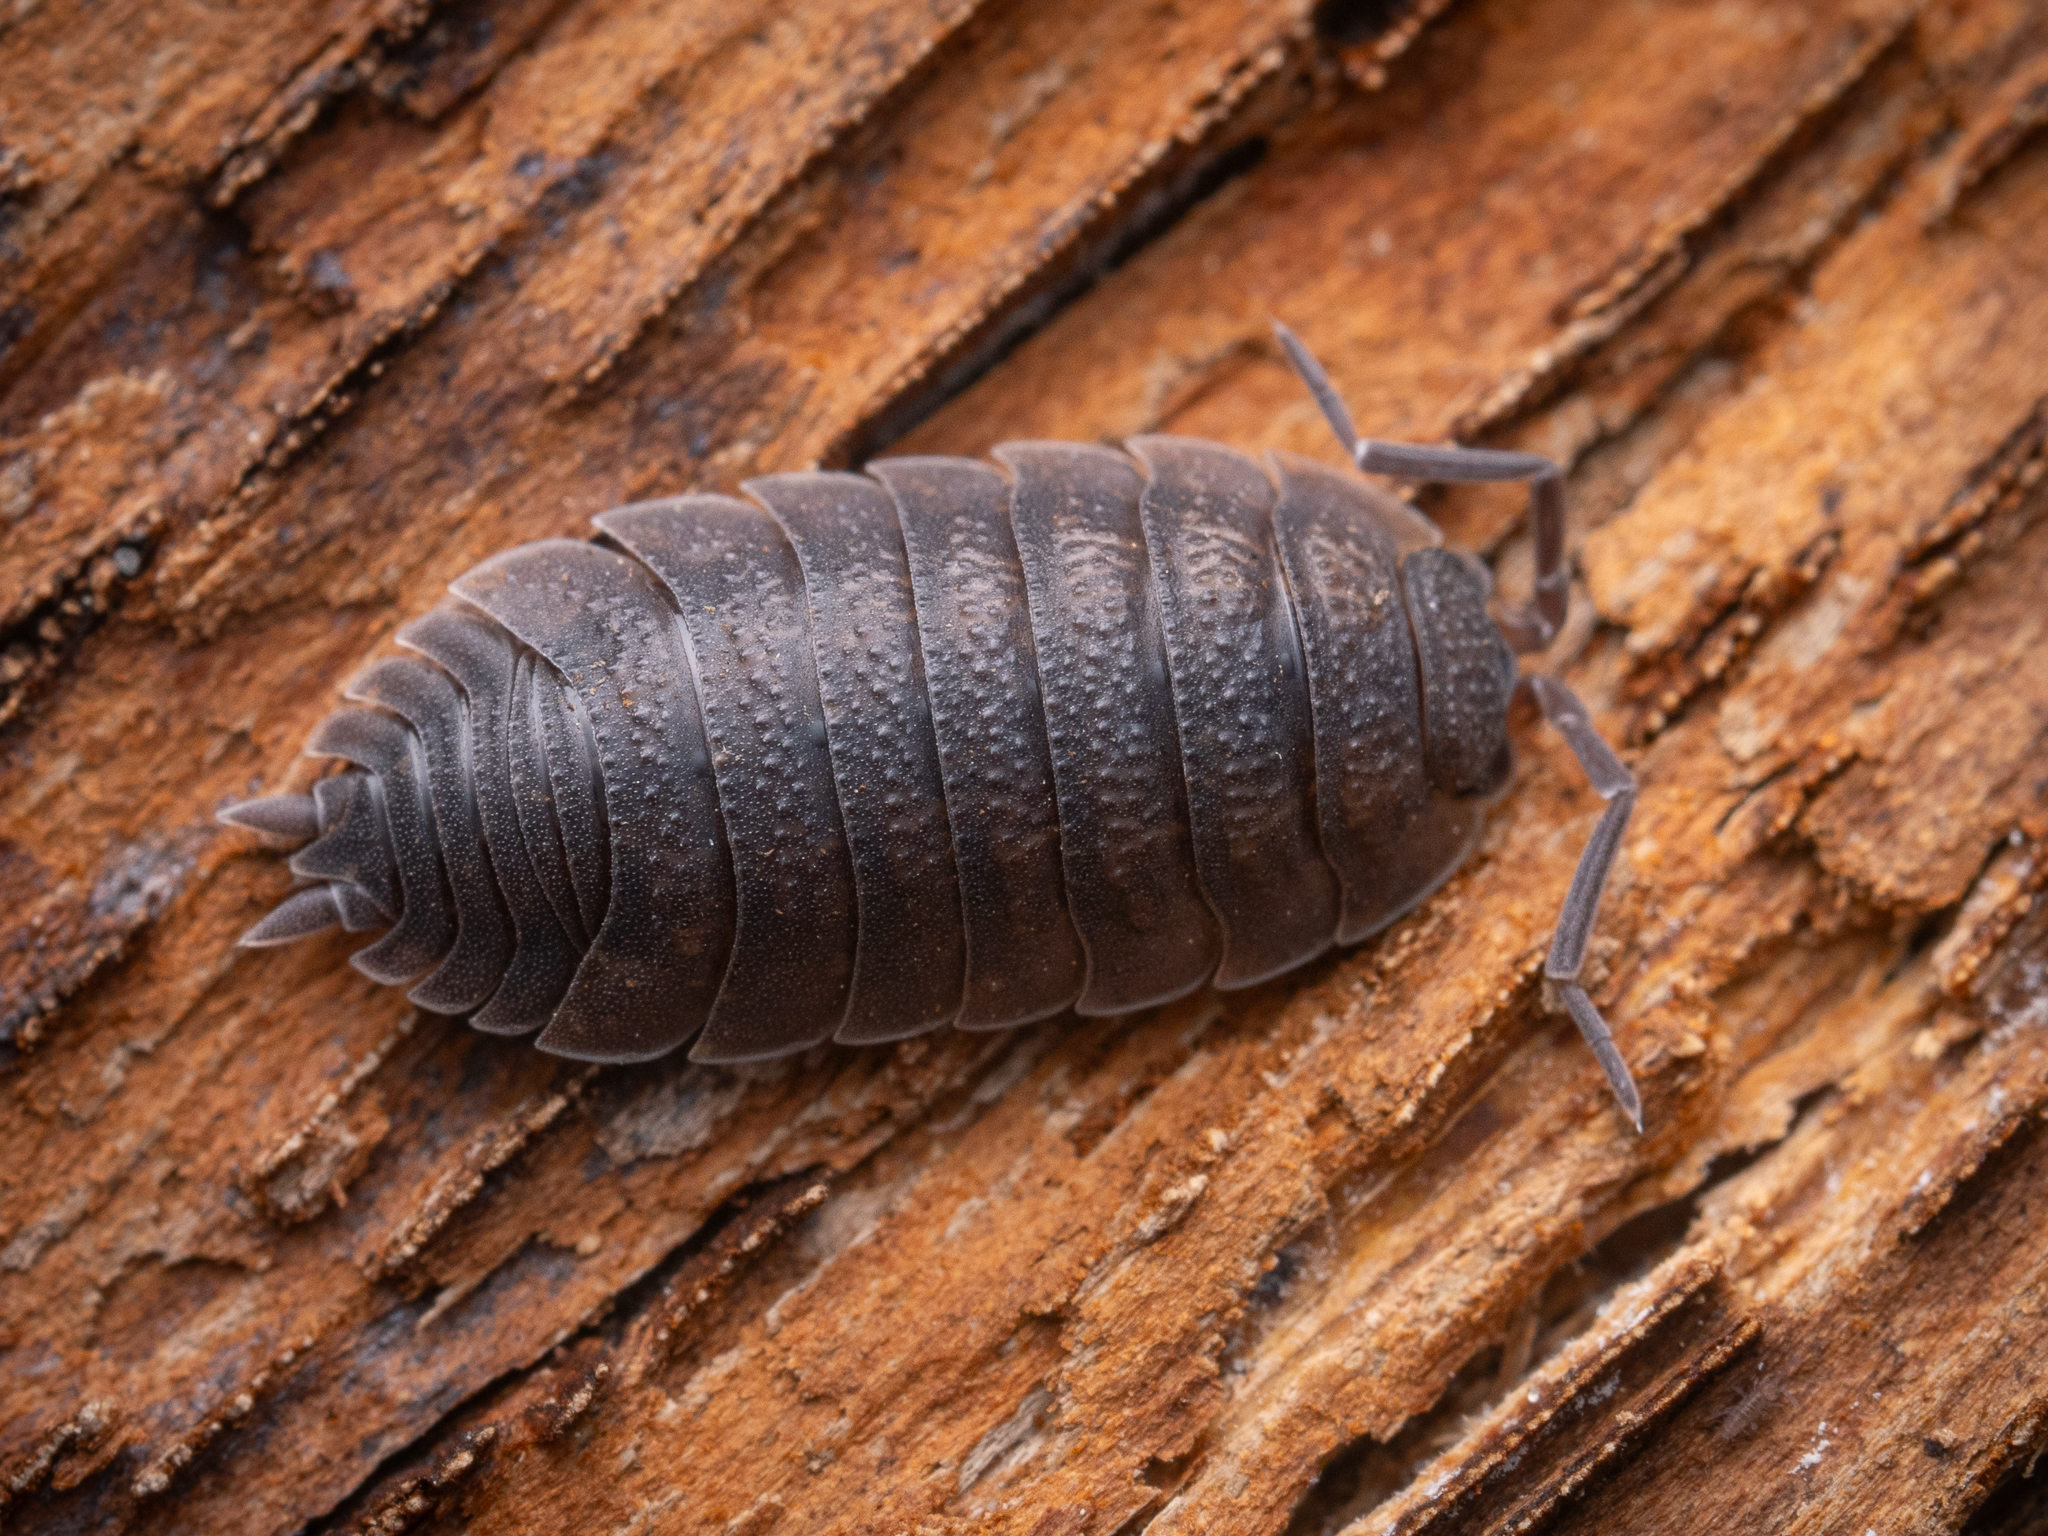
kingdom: Animalia
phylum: Arthropoda
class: Malacostraca
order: Isopoda
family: Porcellionidae
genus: Porcellio
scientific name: Porcellio scaber
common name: Common rough woodlouse
